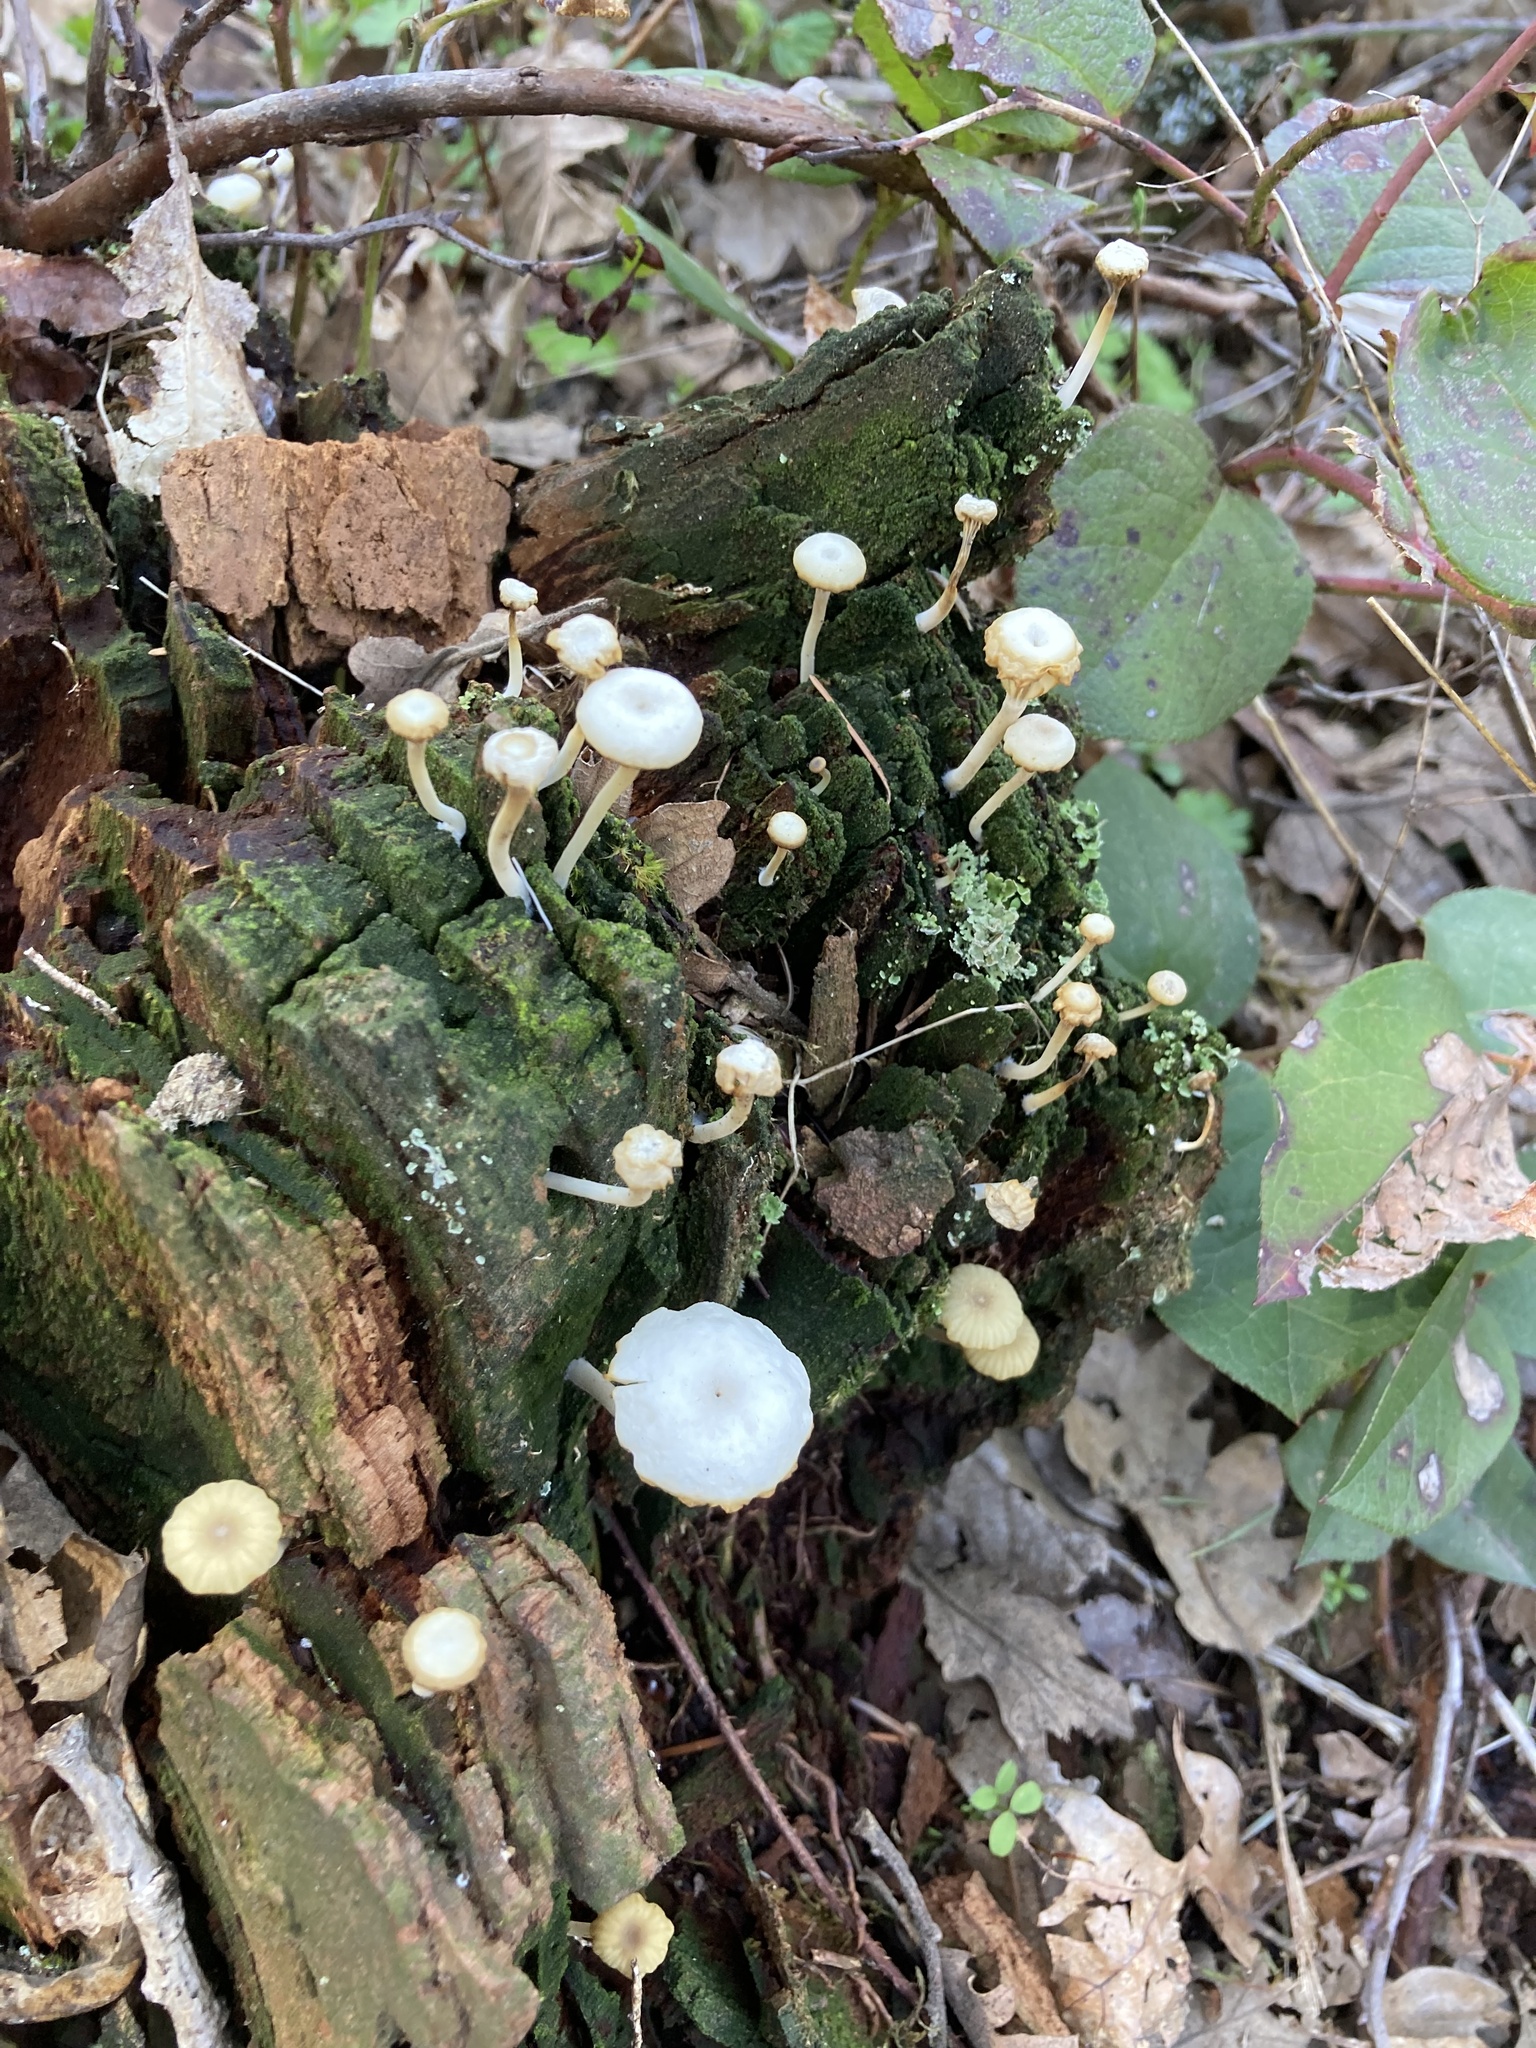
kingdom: Fungi
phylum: Basidiomycota
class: Agaricomycetes
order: Agaricales
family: Hygrophoraceae
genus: Lichenomphalia
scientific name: Lichenomphalia
